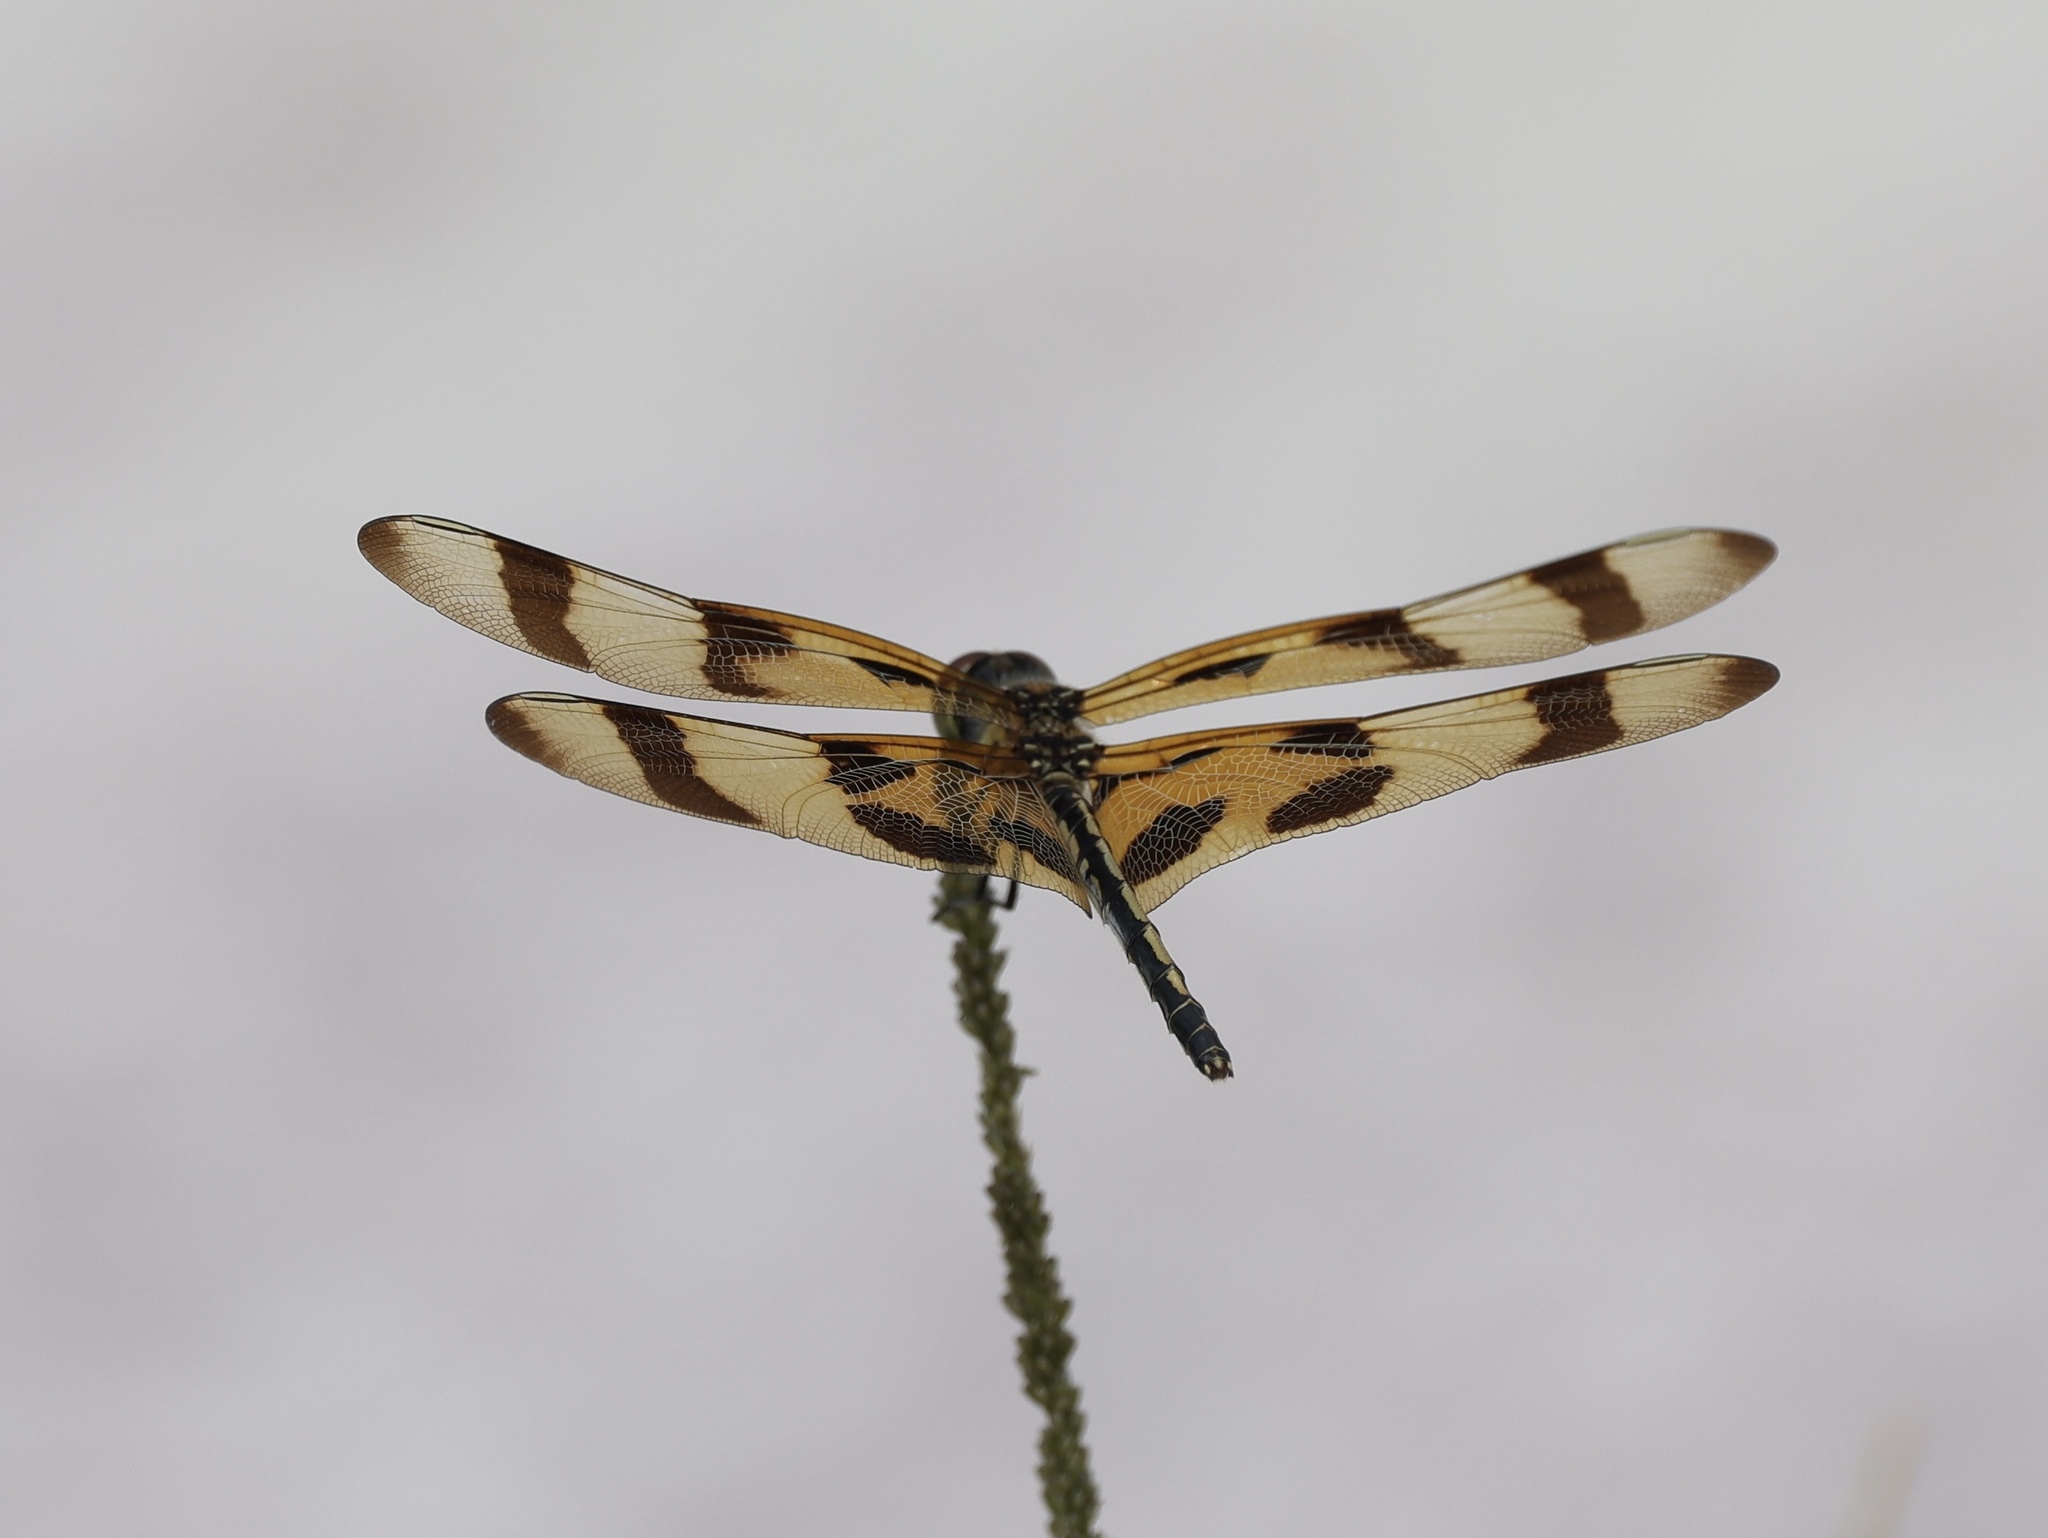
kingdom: Animalia
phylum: Arthropoda
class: Insecta
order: Odonata
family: Libellulidae
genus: Celithemis
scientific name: Celithemis eponina
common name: Halloween pennant
